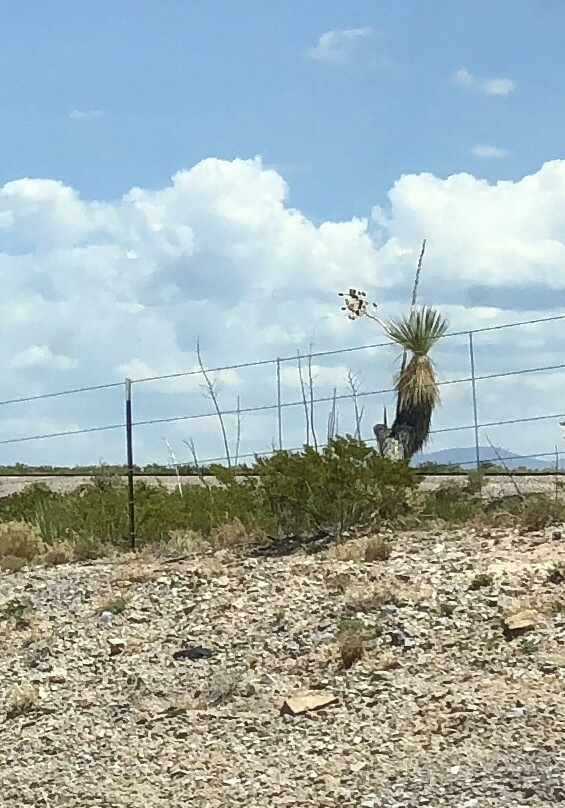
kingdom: Plantae
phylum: Tracheophyta
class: Magnoliopsida
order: Zygophyllales
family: Zygophyllaceae
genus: Larrea
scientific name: Larrea tridentata
